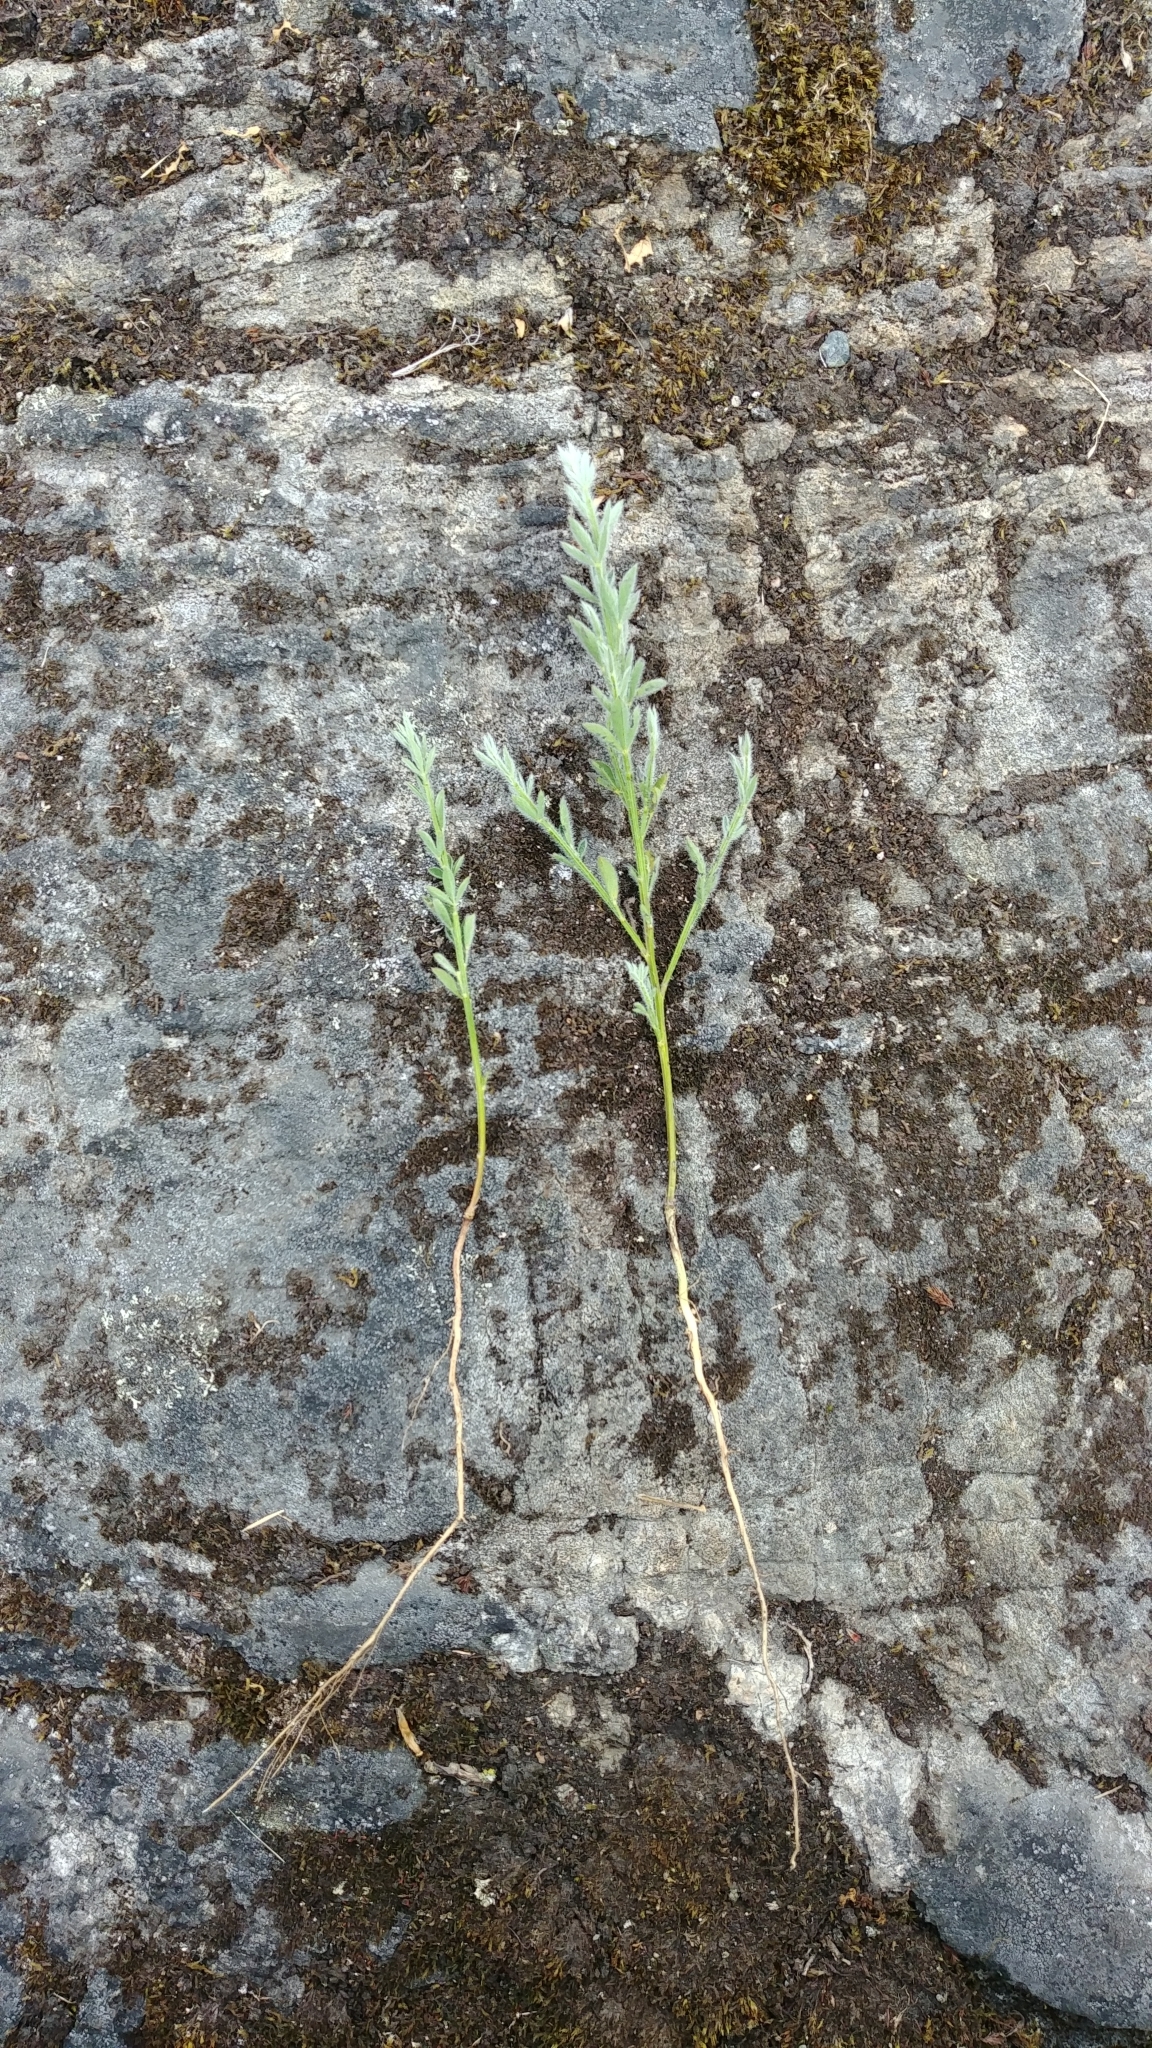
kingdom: Plantae
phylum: Tracheophyta
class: Magnoliopsida
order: Fabales
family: Fabaceae
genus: Cytisus
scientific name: Cytisus scoparius
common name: Scotch broom
